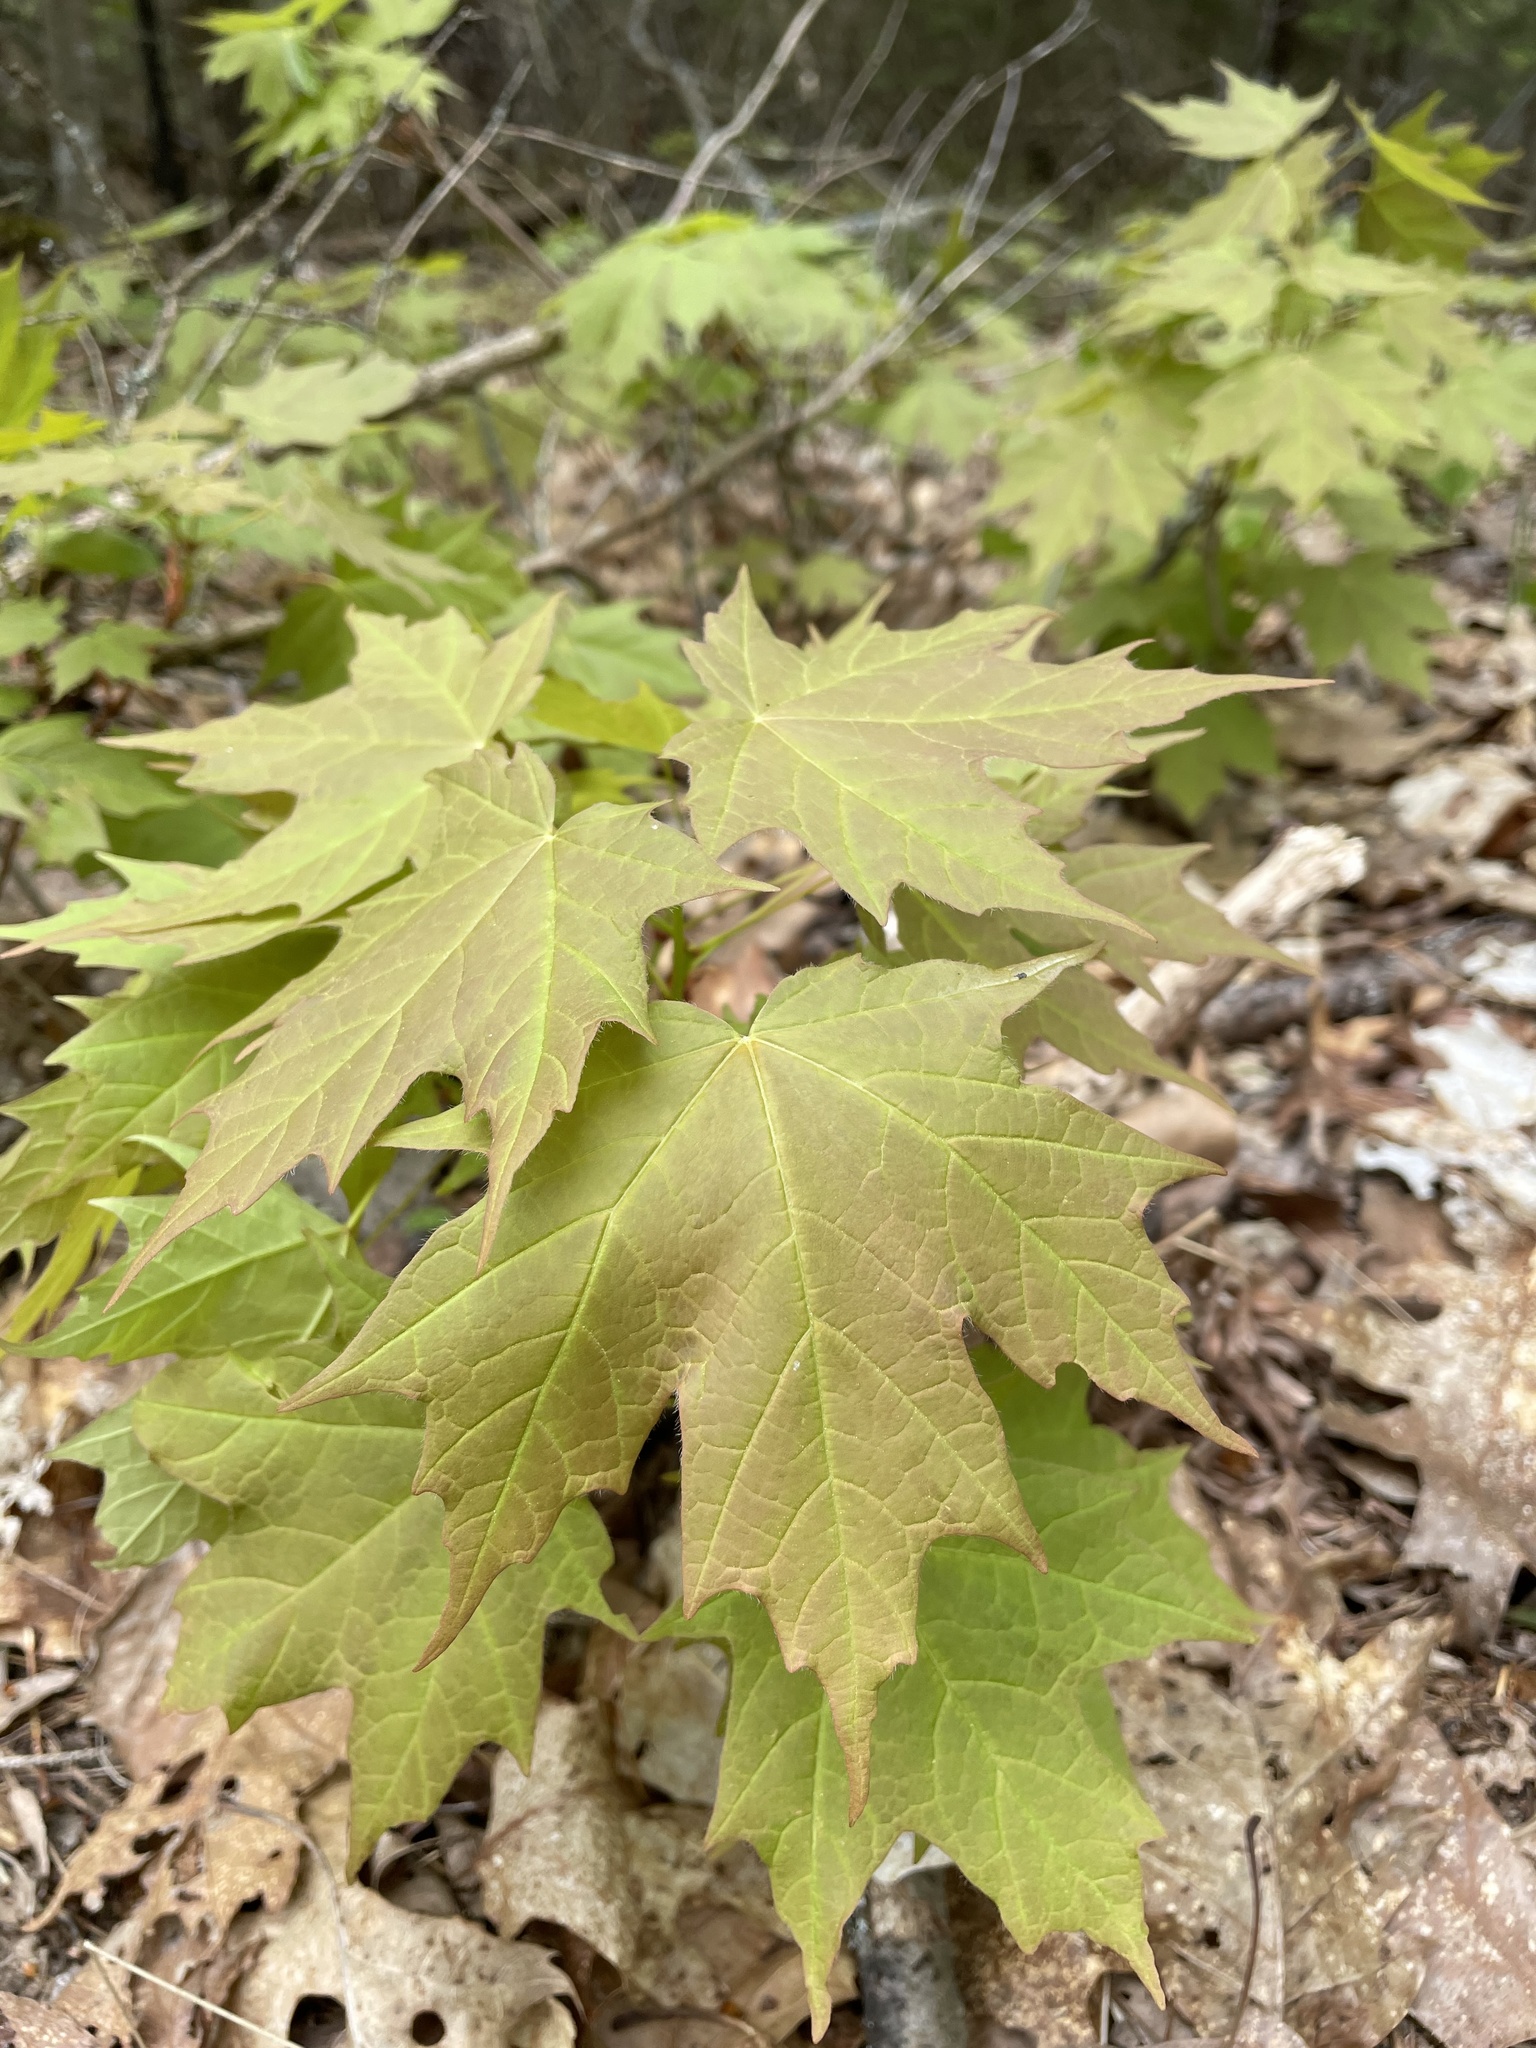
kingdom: Plantae
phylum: Tracheophyta
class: Magnoliopsida
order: Sapindales
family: Sapindaceae
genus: Acer
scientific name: Acer saccharum
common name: Sugar maple
